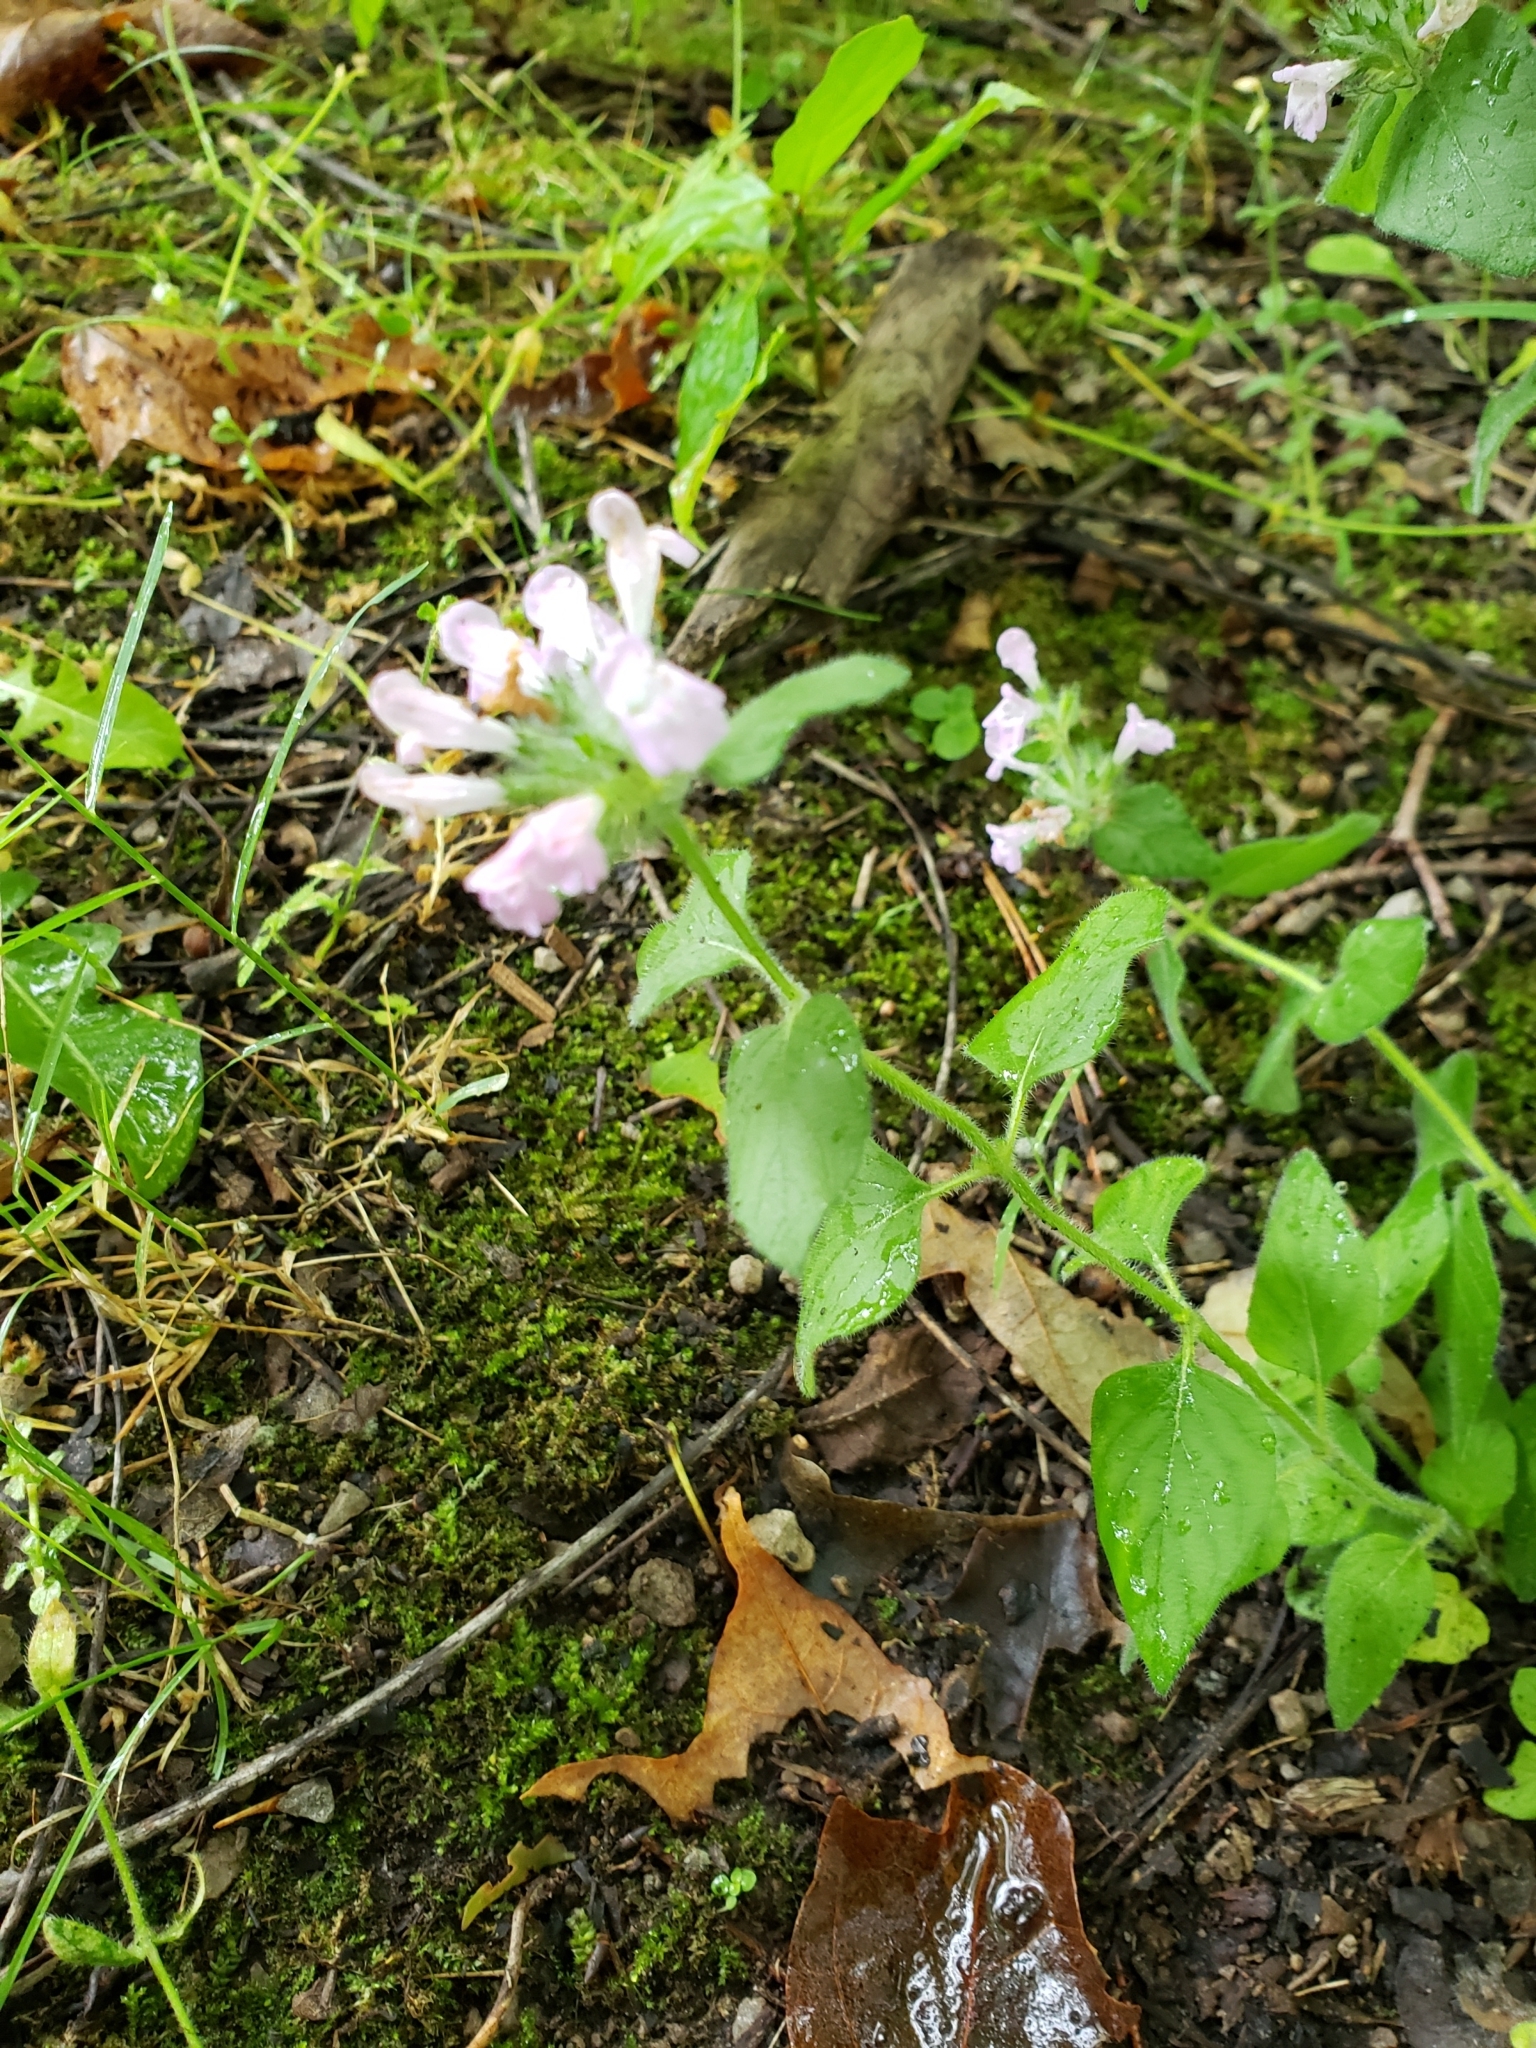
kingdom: Plantae
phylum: Tracheophyta
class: Magnoliopsida
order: Lamiales
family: Lamiaceae
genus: Clinopodium
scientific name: Clinopodium vulgare
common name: Wild basil
